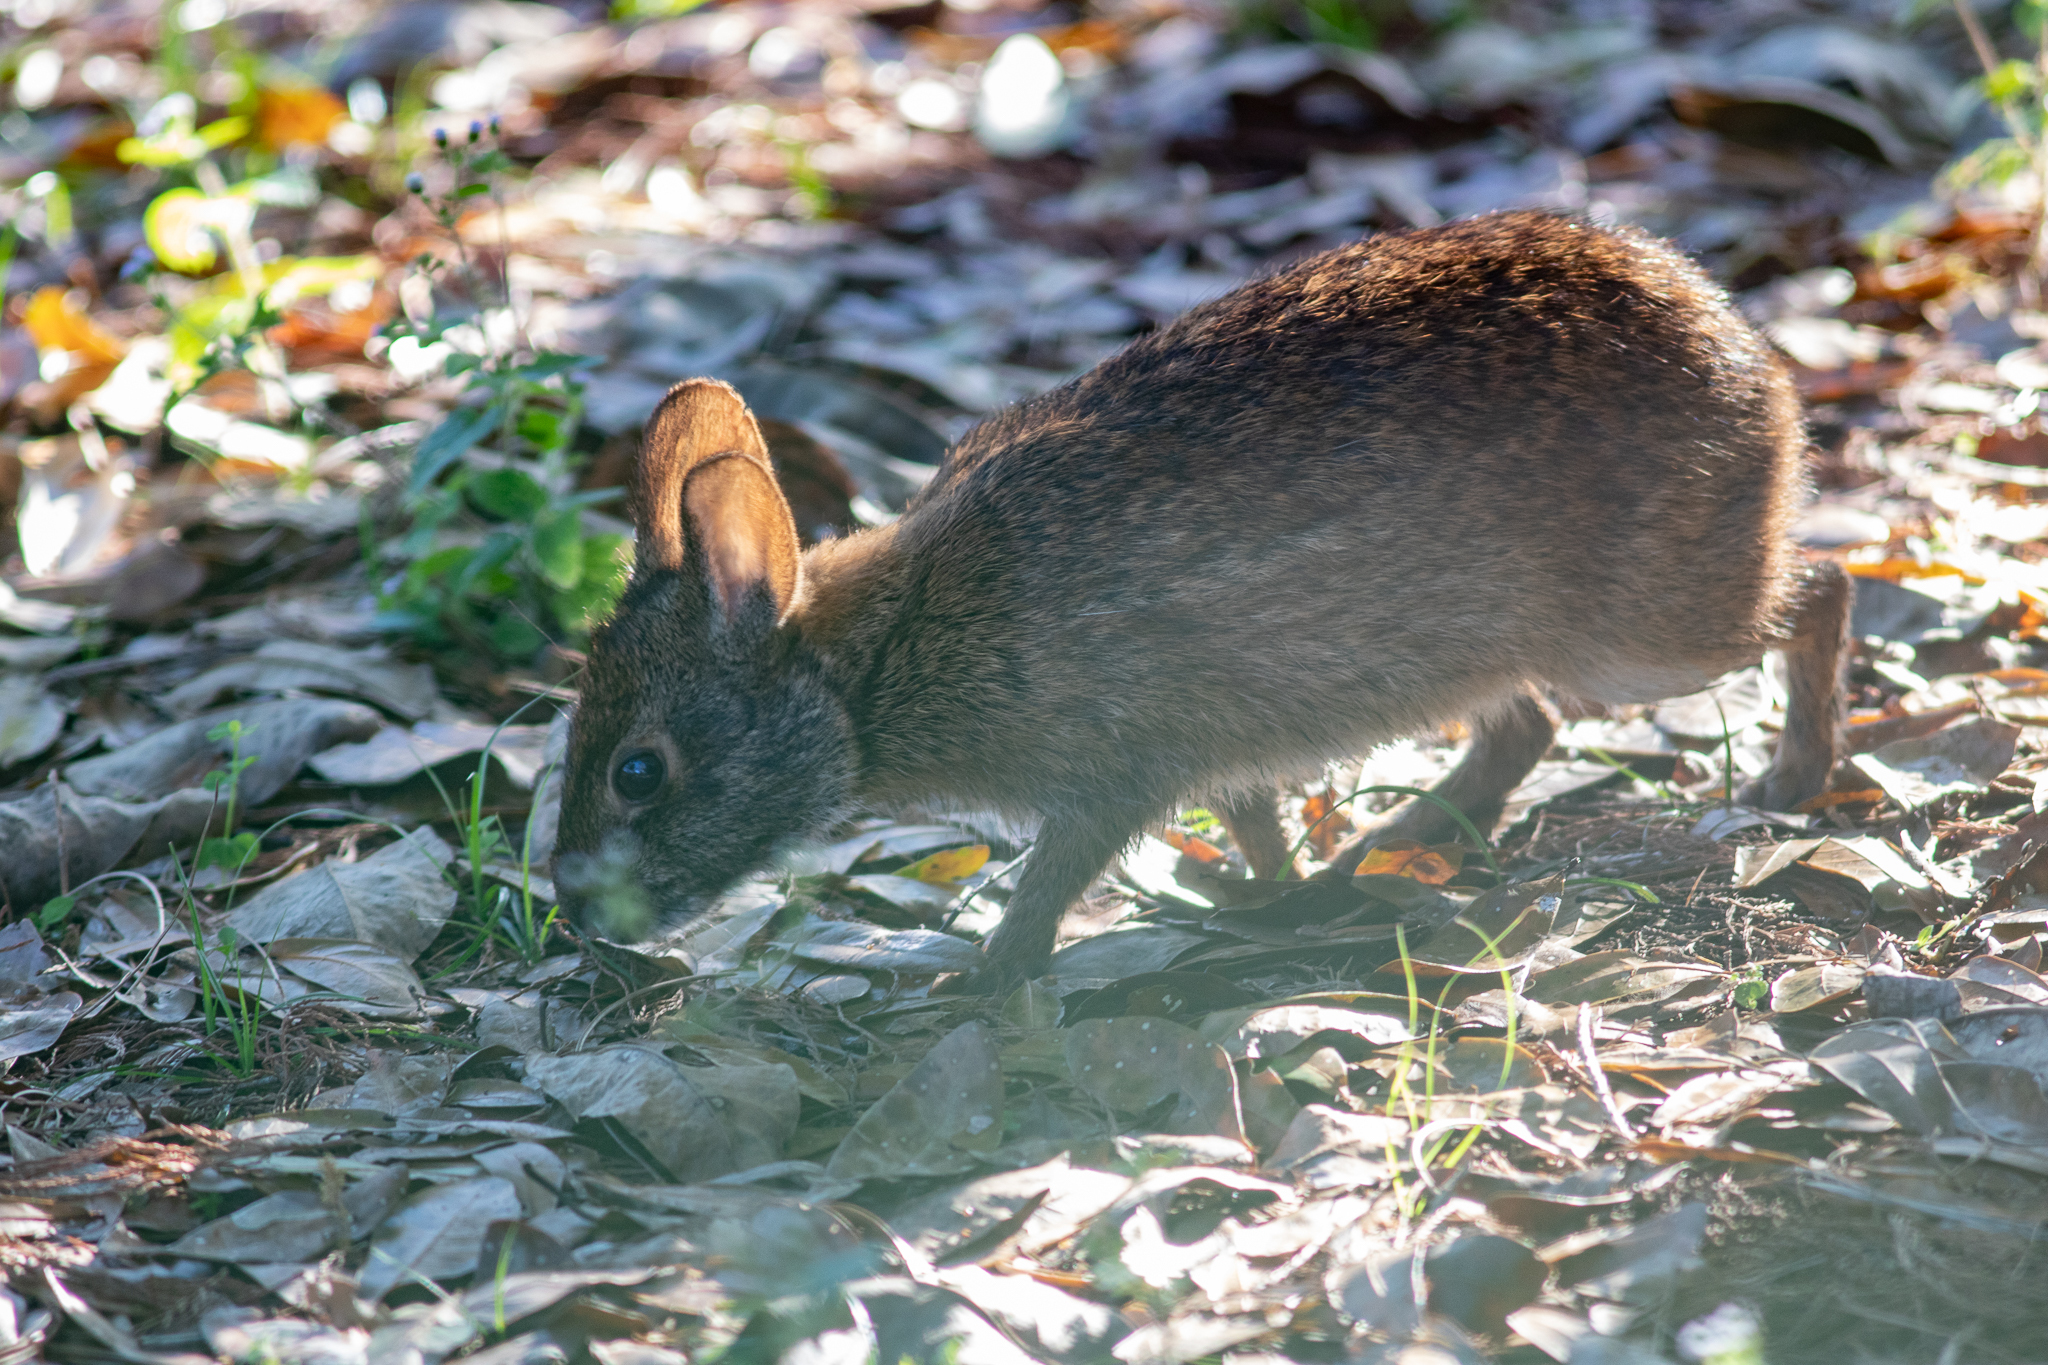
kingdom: Animalia
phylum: Chordata
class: Mammalia
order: Lagomorpha
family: Leporidae
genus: Sylvilagus
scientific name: Sylvilagus palustris
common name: Marsh rabbit
